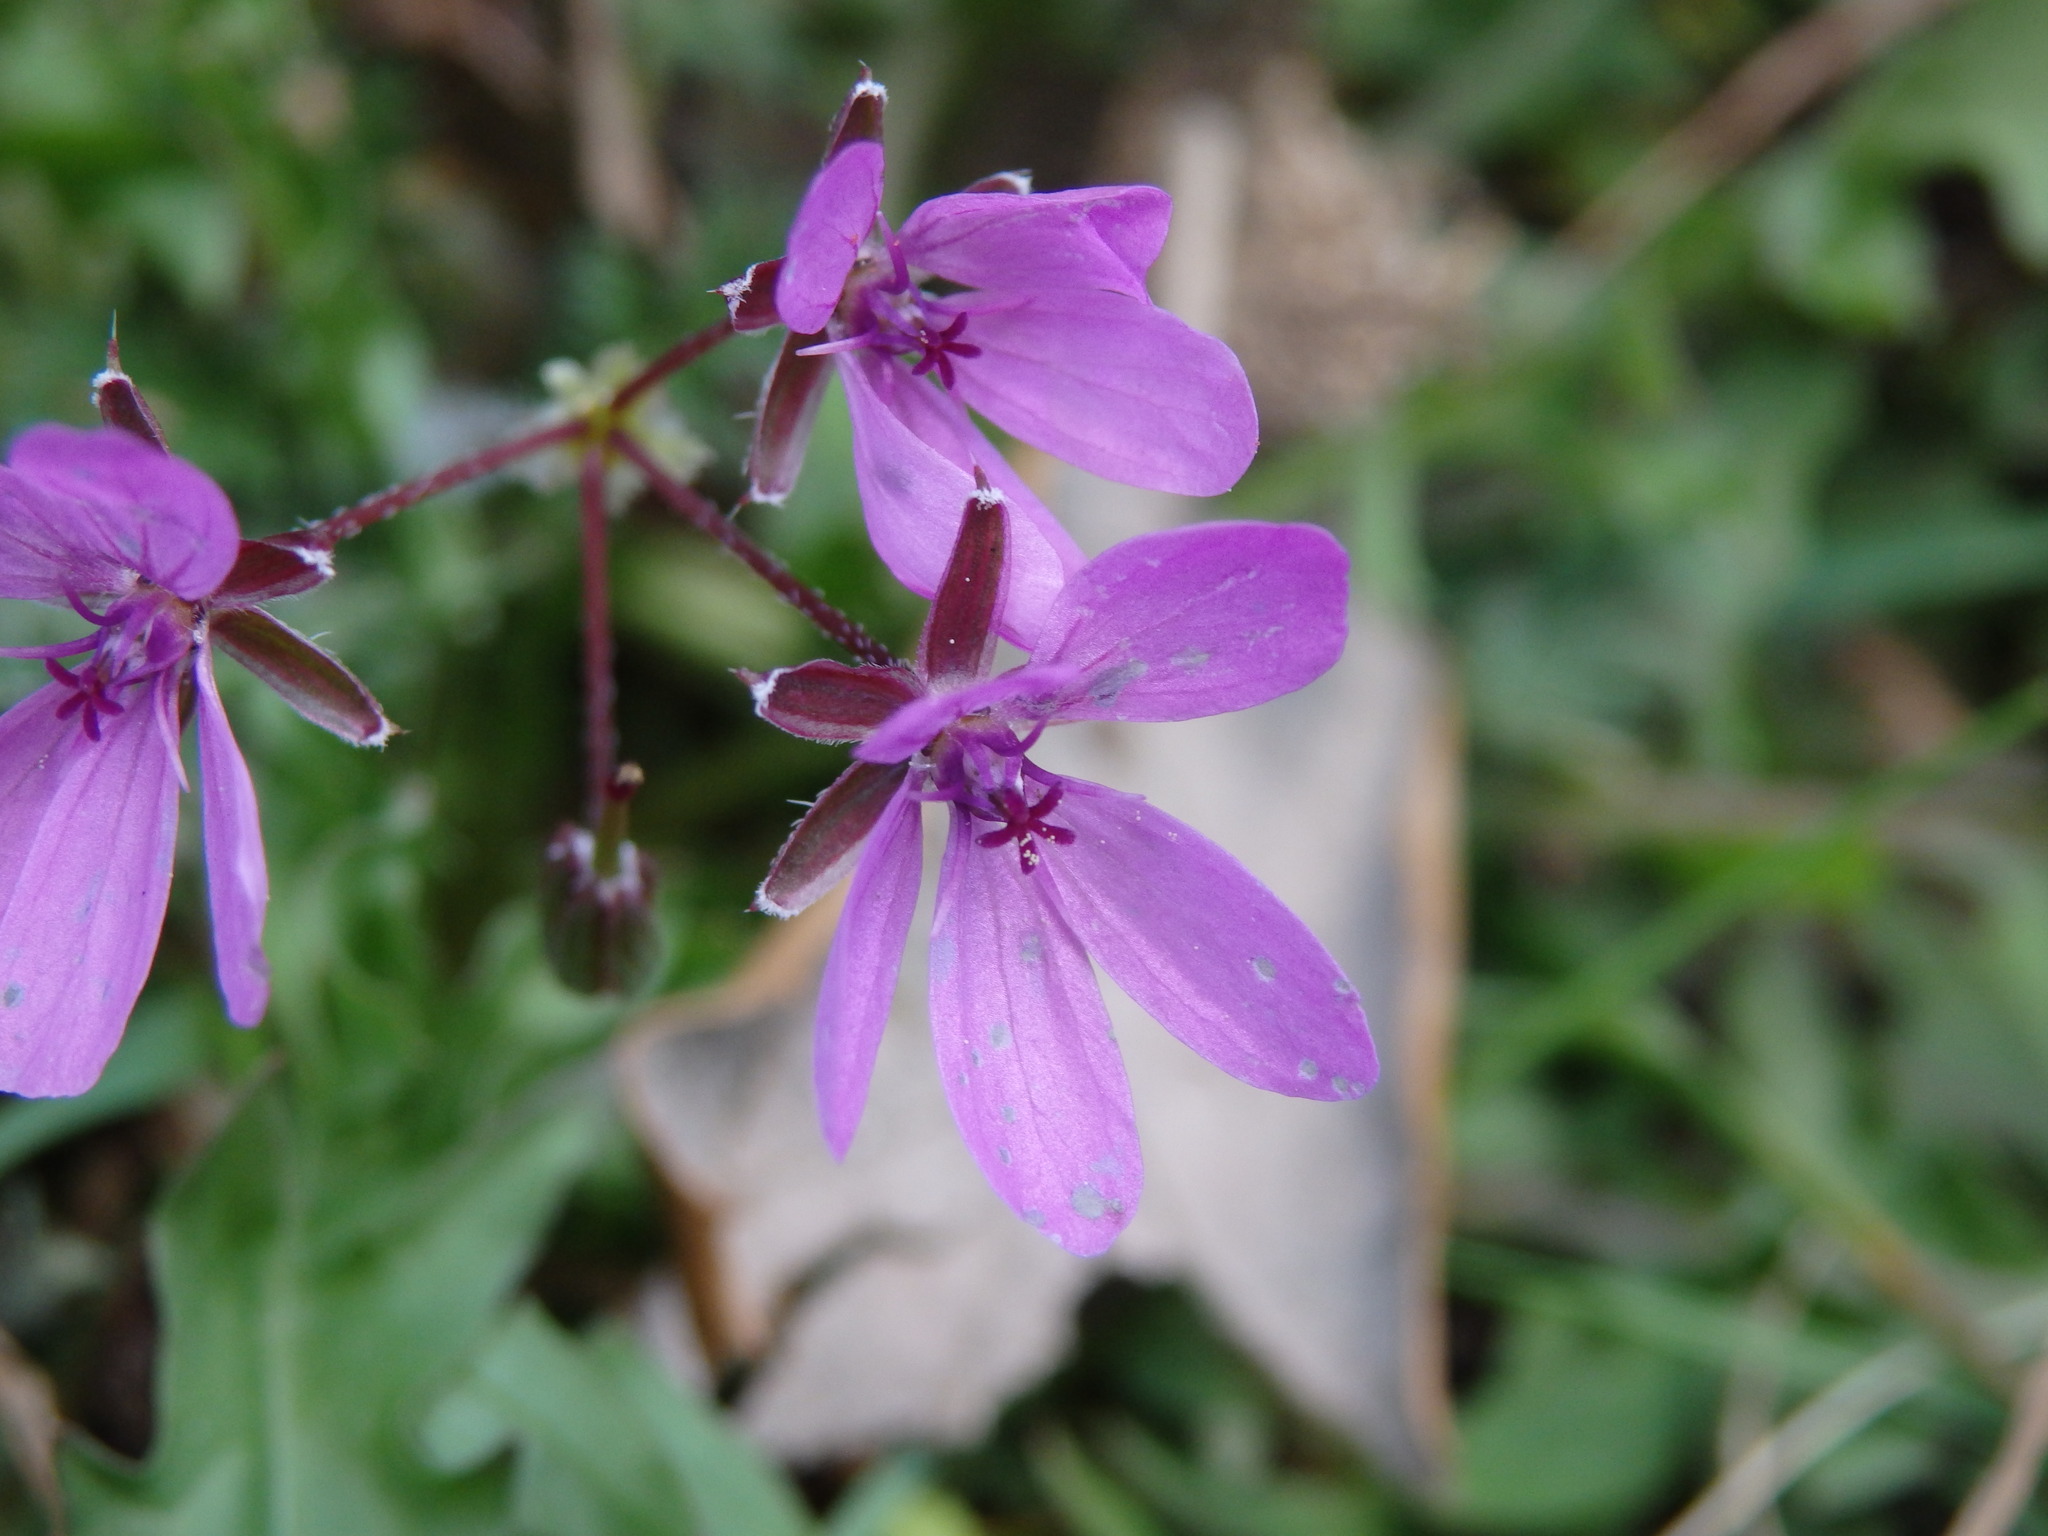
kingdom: Plantae
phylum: Tracheophyta
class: Magnoliopsida
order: Geraniales
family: Geraniaceae
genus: Erodium
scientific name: Erodium cicutarium
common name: Common stork's-bill
